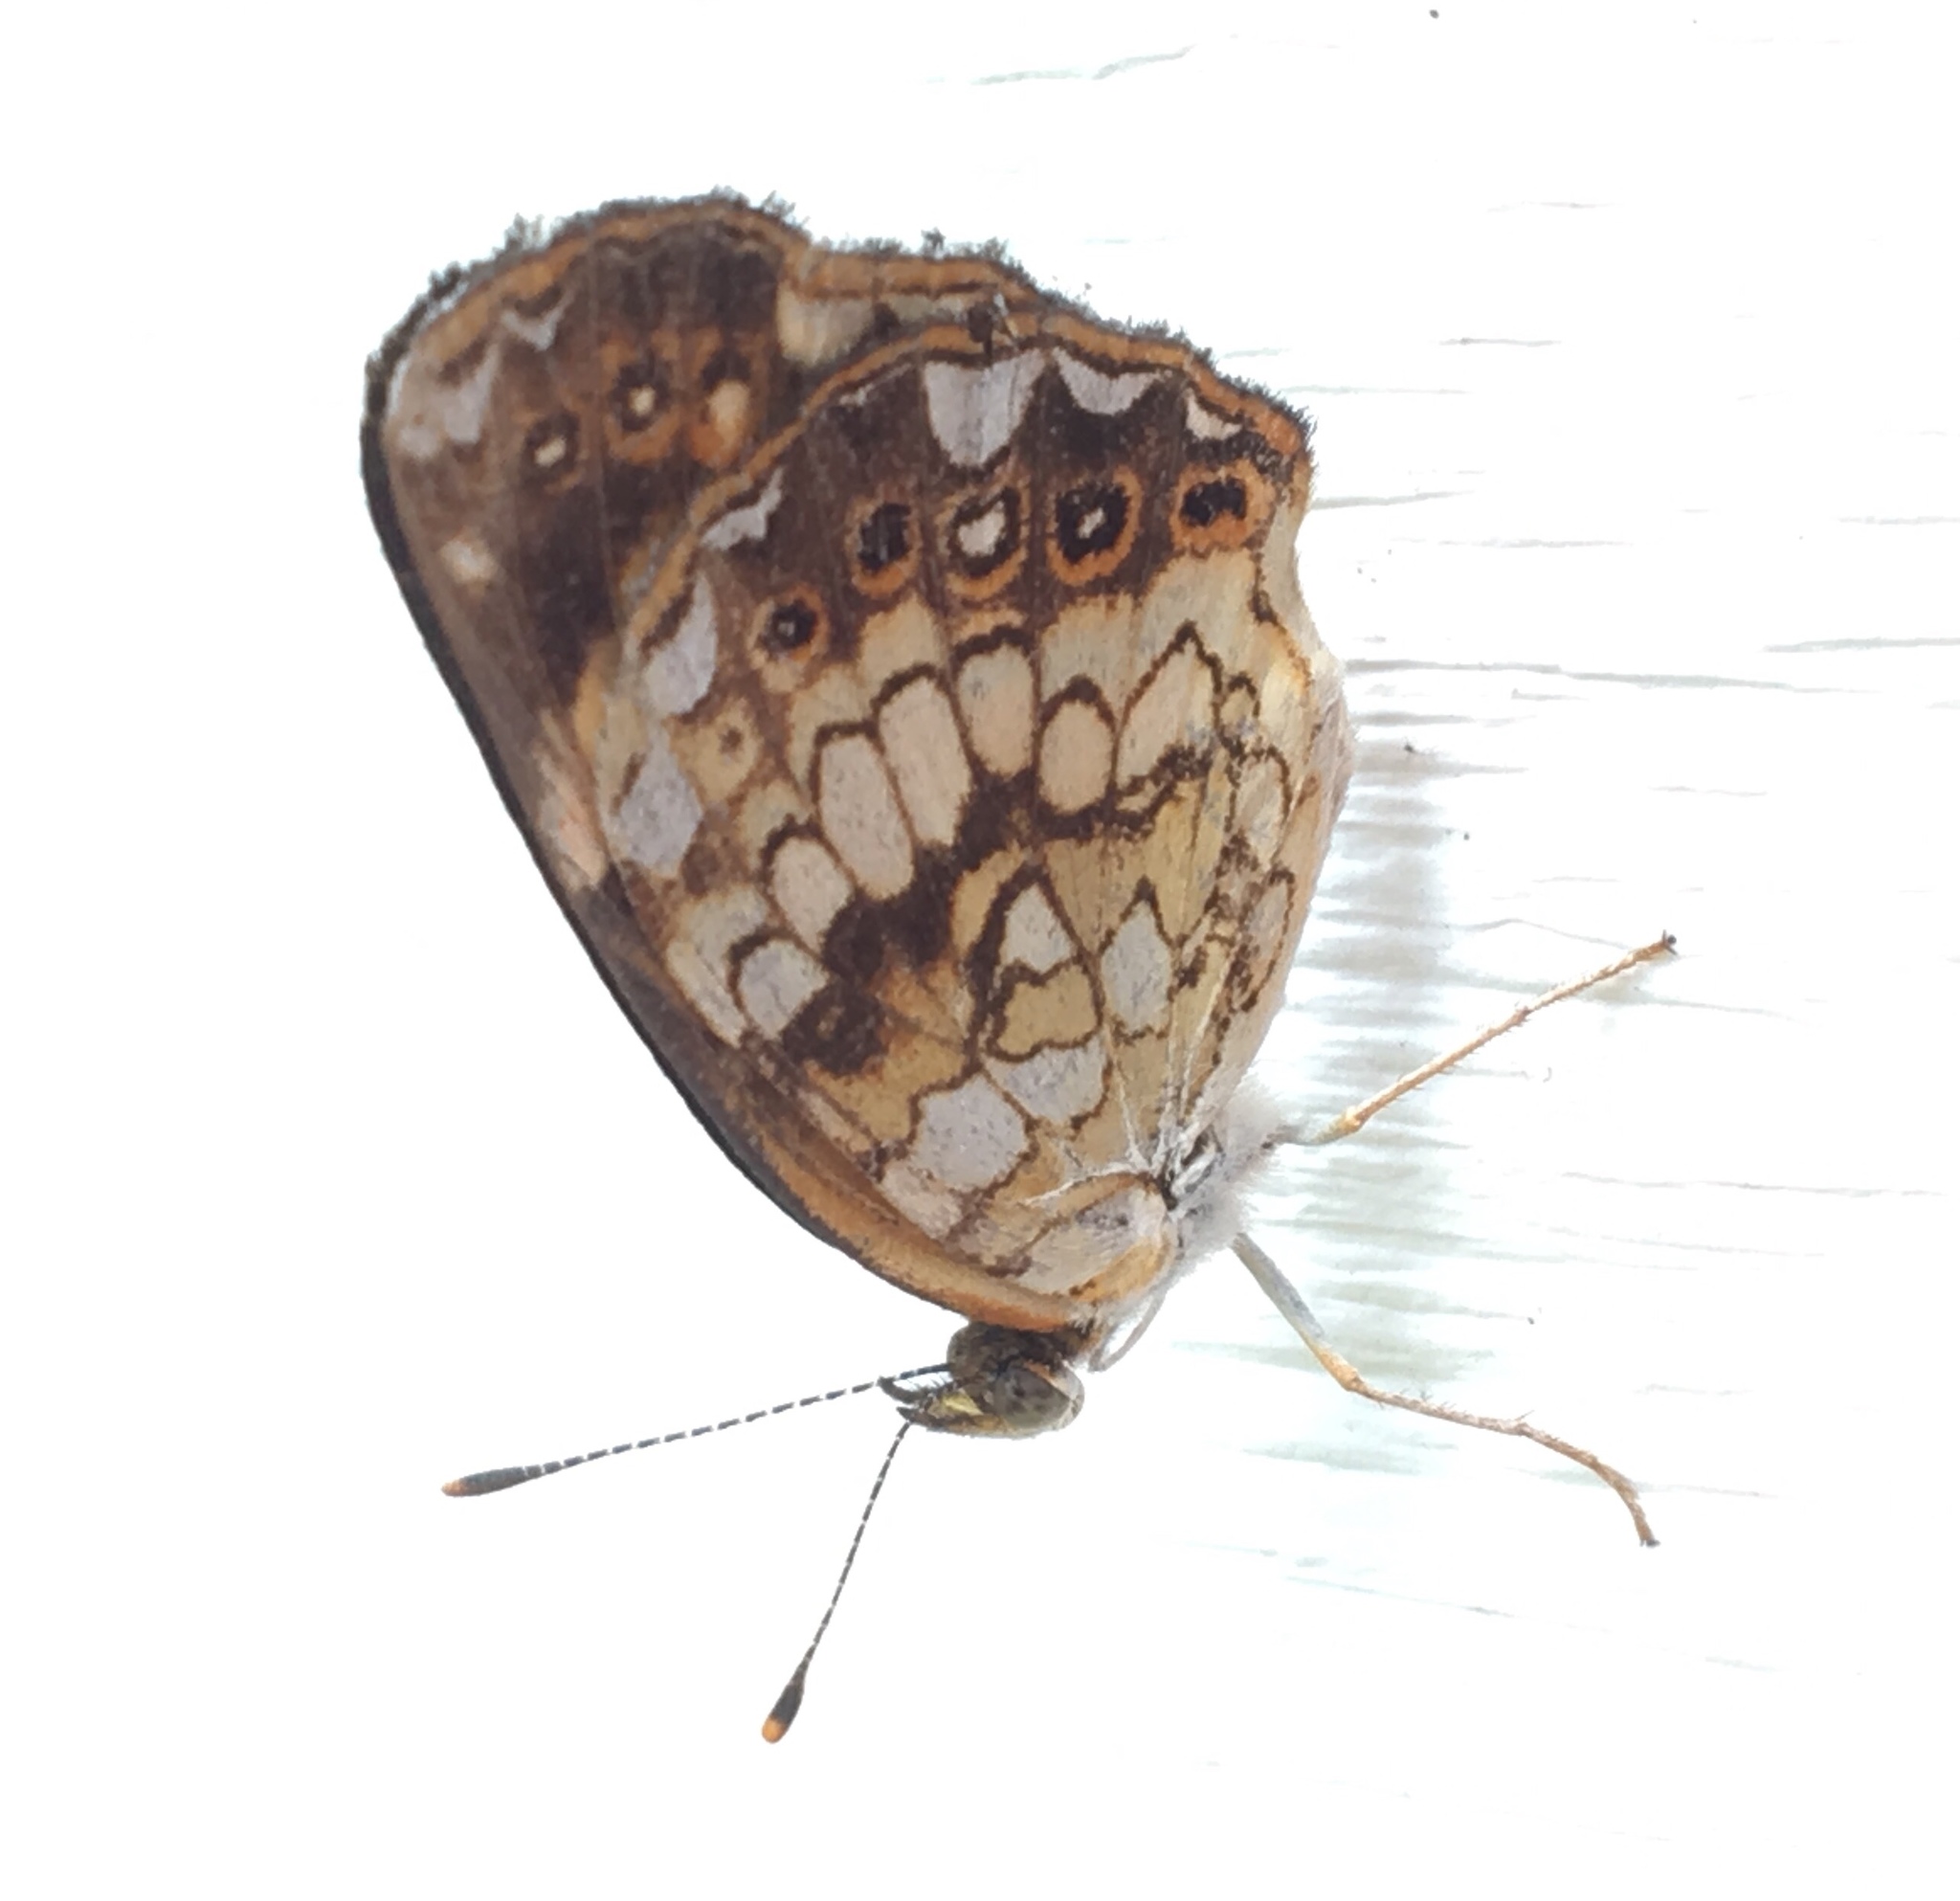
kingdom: Animalia
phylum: Arthropoda
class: Insecta
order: Lepidoptera
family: Nymphalidae
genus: Chlosyne
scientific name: Chlosyne nycteis
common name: Silvery checkerspot
